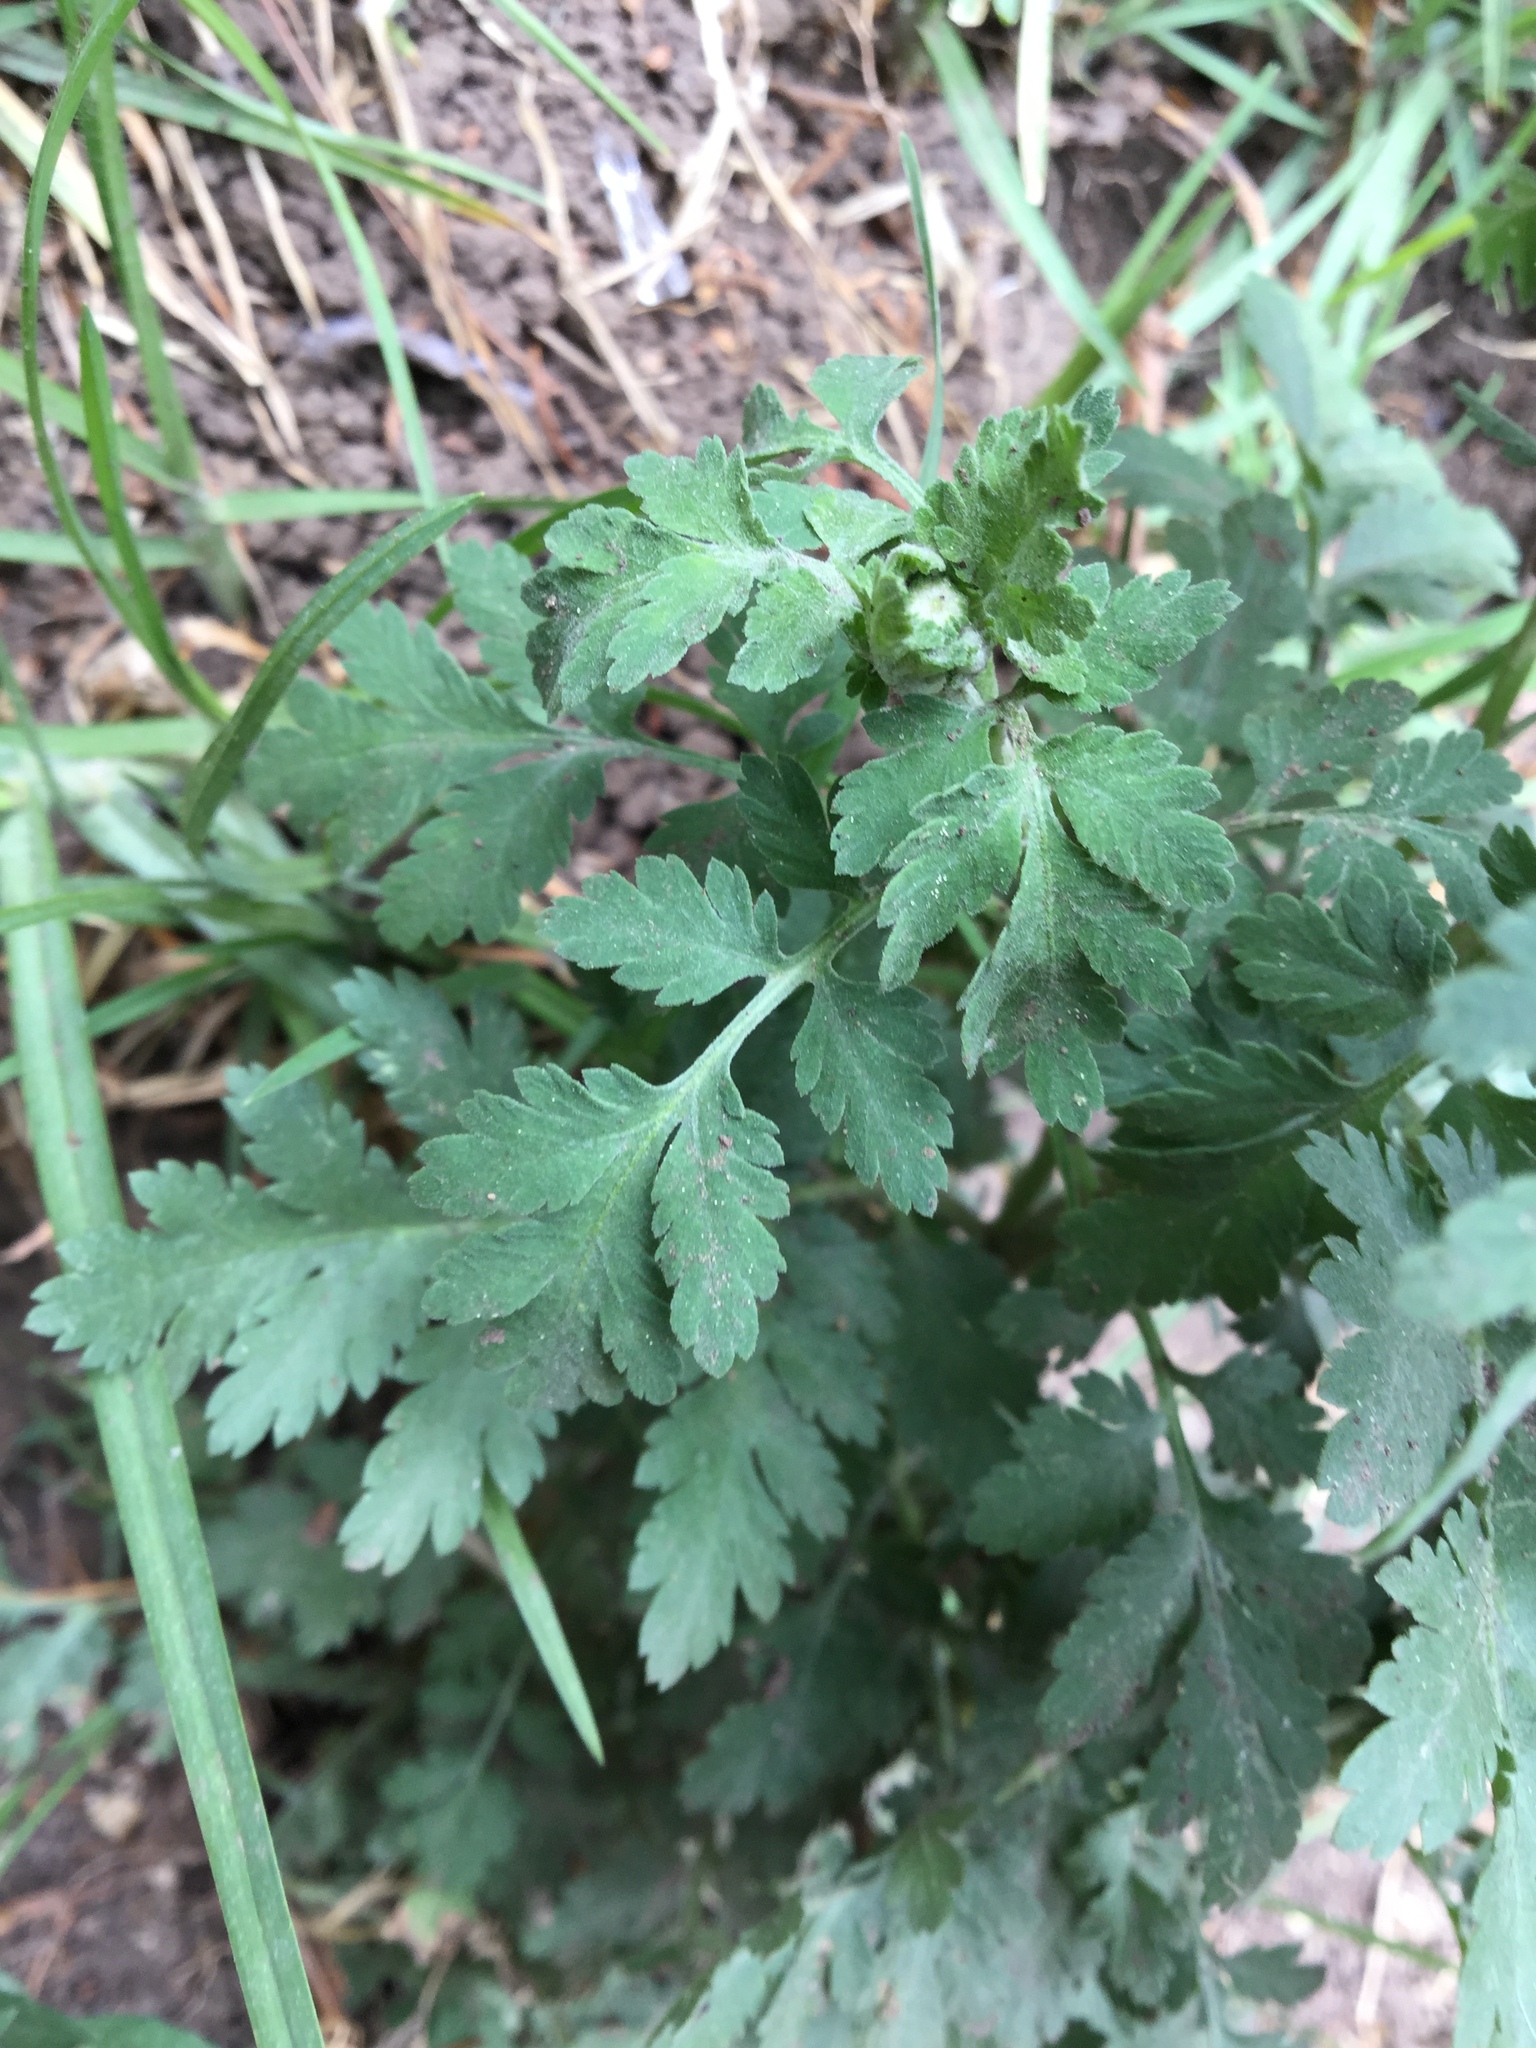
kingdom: Plantae
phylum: Tracheophyta
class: Magnoliopsida
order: Asterales
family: Asteraceae
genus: Tanacetum
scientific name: Tanacetum parthenium
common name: Feverfew
